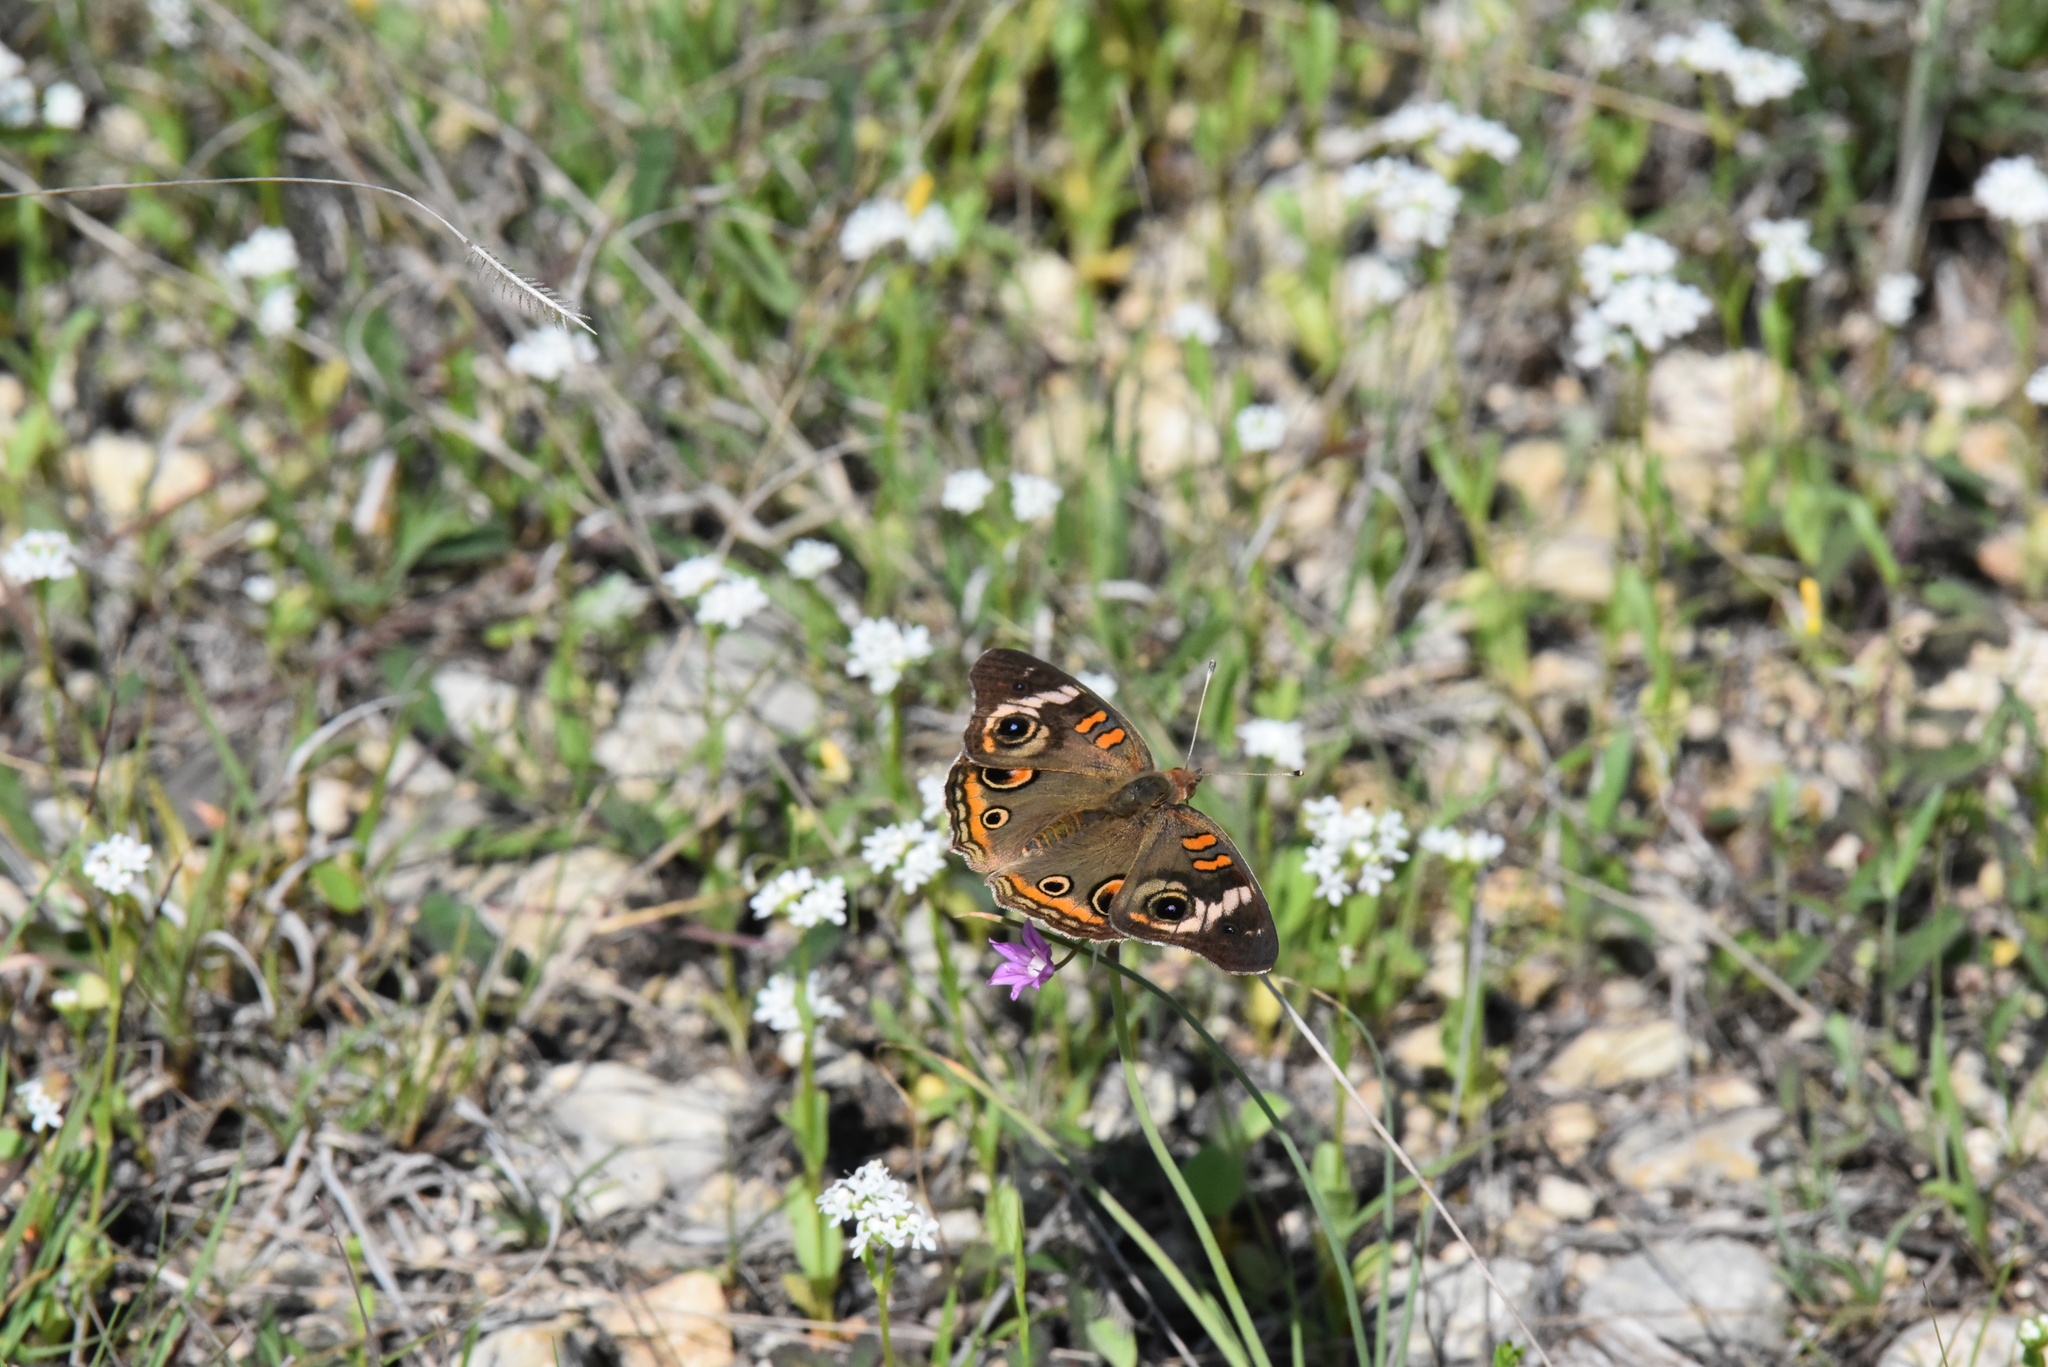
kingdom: Animalia
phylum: Arthropoda
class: Insecta
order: Lepidoptera
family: Nymphalidae
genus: Junonia
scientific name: Junonia coenia
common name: Common buckeye
